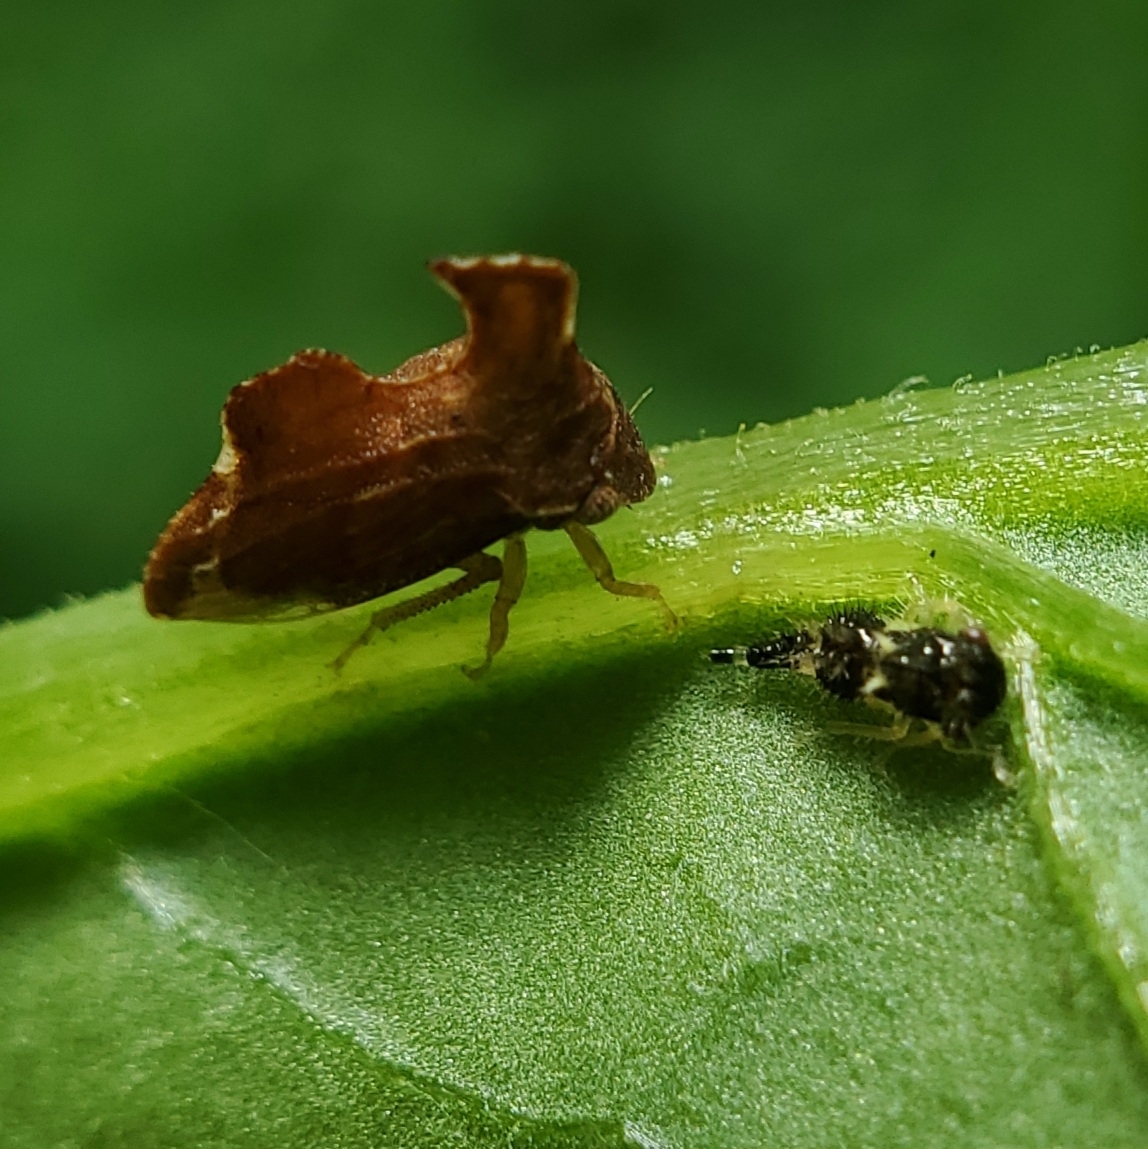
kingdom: Animalia
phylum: Arthropoda
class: Insecta
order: Hemiptera
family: Membracidae
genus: Entylia
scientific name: Entylia carinata
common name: Keeled treehopper
